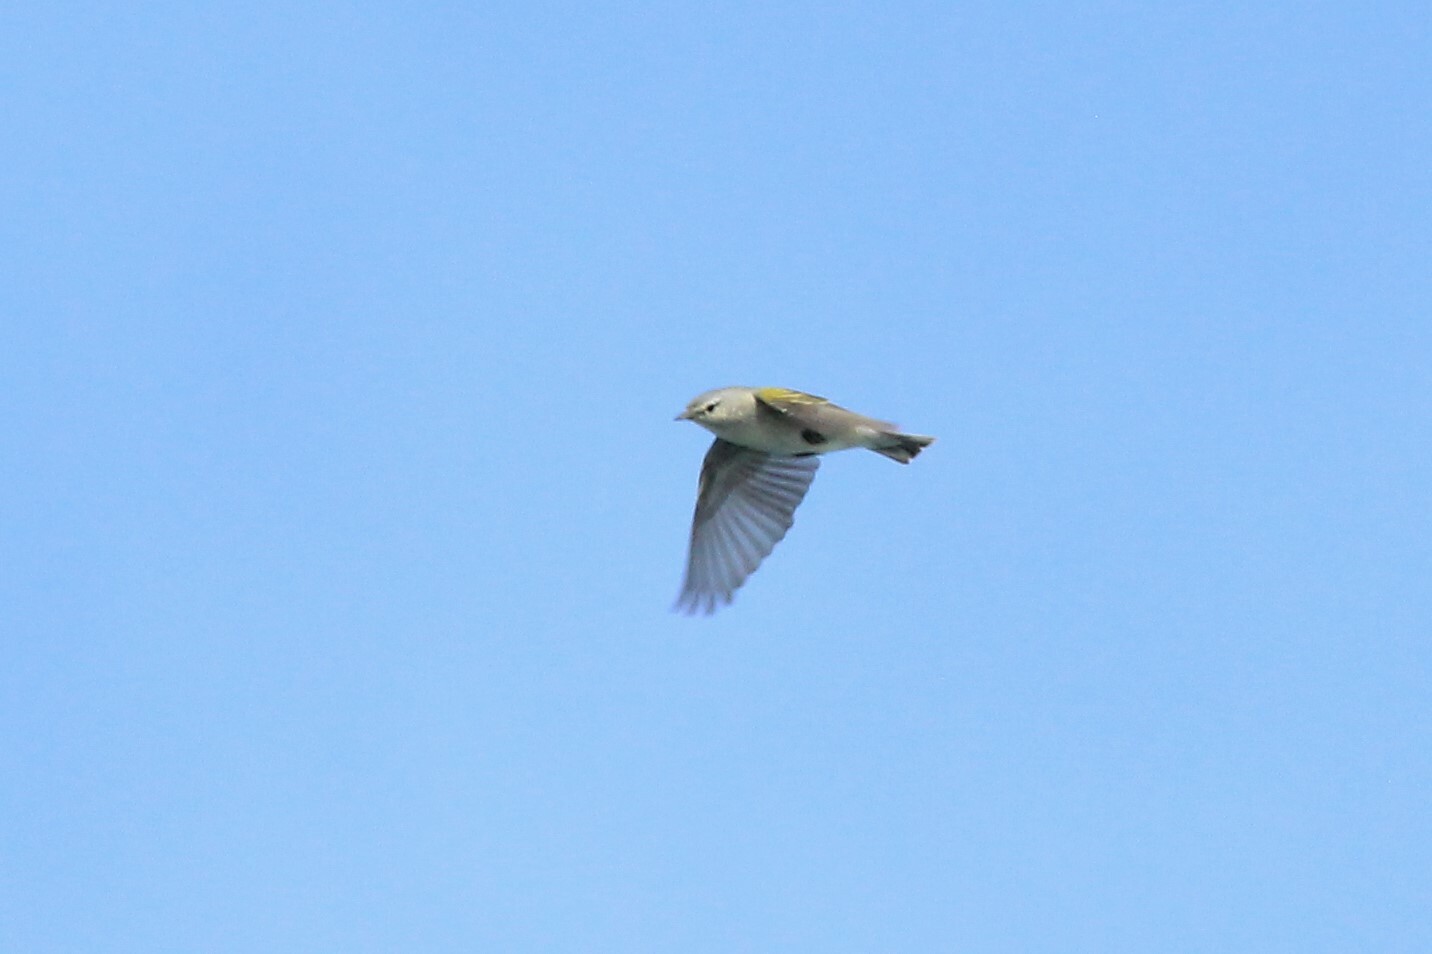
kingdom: Animalia
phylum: Chordata
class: Aves
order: Passeriformes
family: Parulidae
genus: Leiothlypis
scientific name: Leiothlypis peregrina
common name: Tennessee warbler
